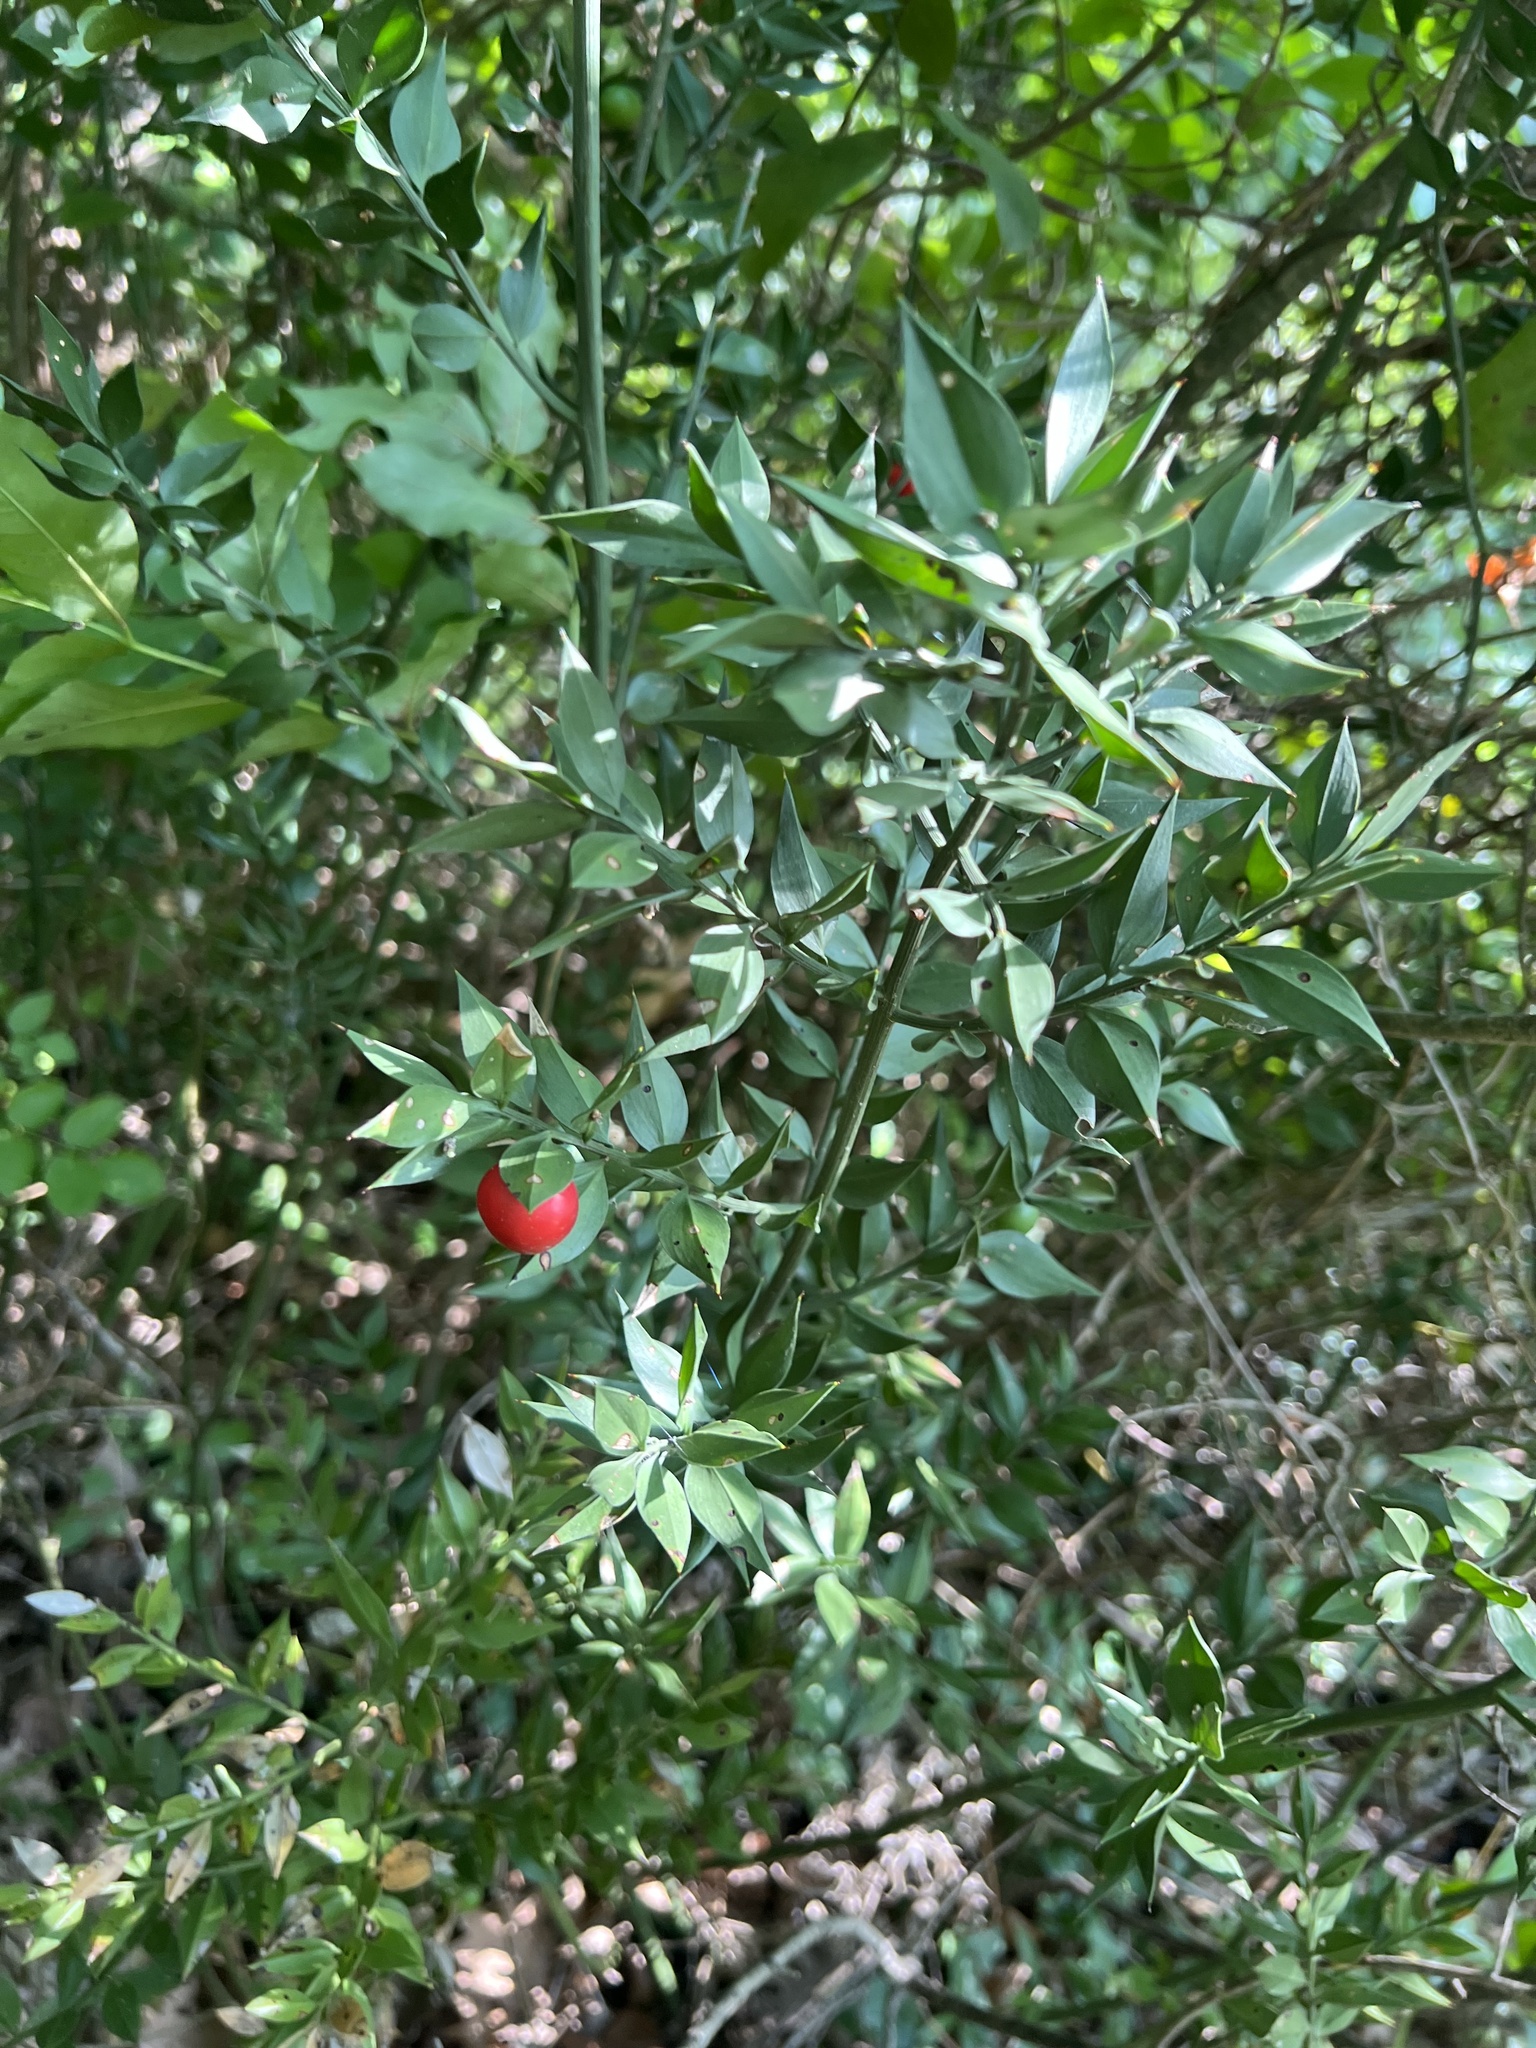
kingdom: Plantae
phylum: Tracheophyta
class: Liliopsida
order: Asparagales
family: Asparagaceae
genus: Ruscus
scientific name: Ruscus aculeatus
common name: Butcher's-broom
